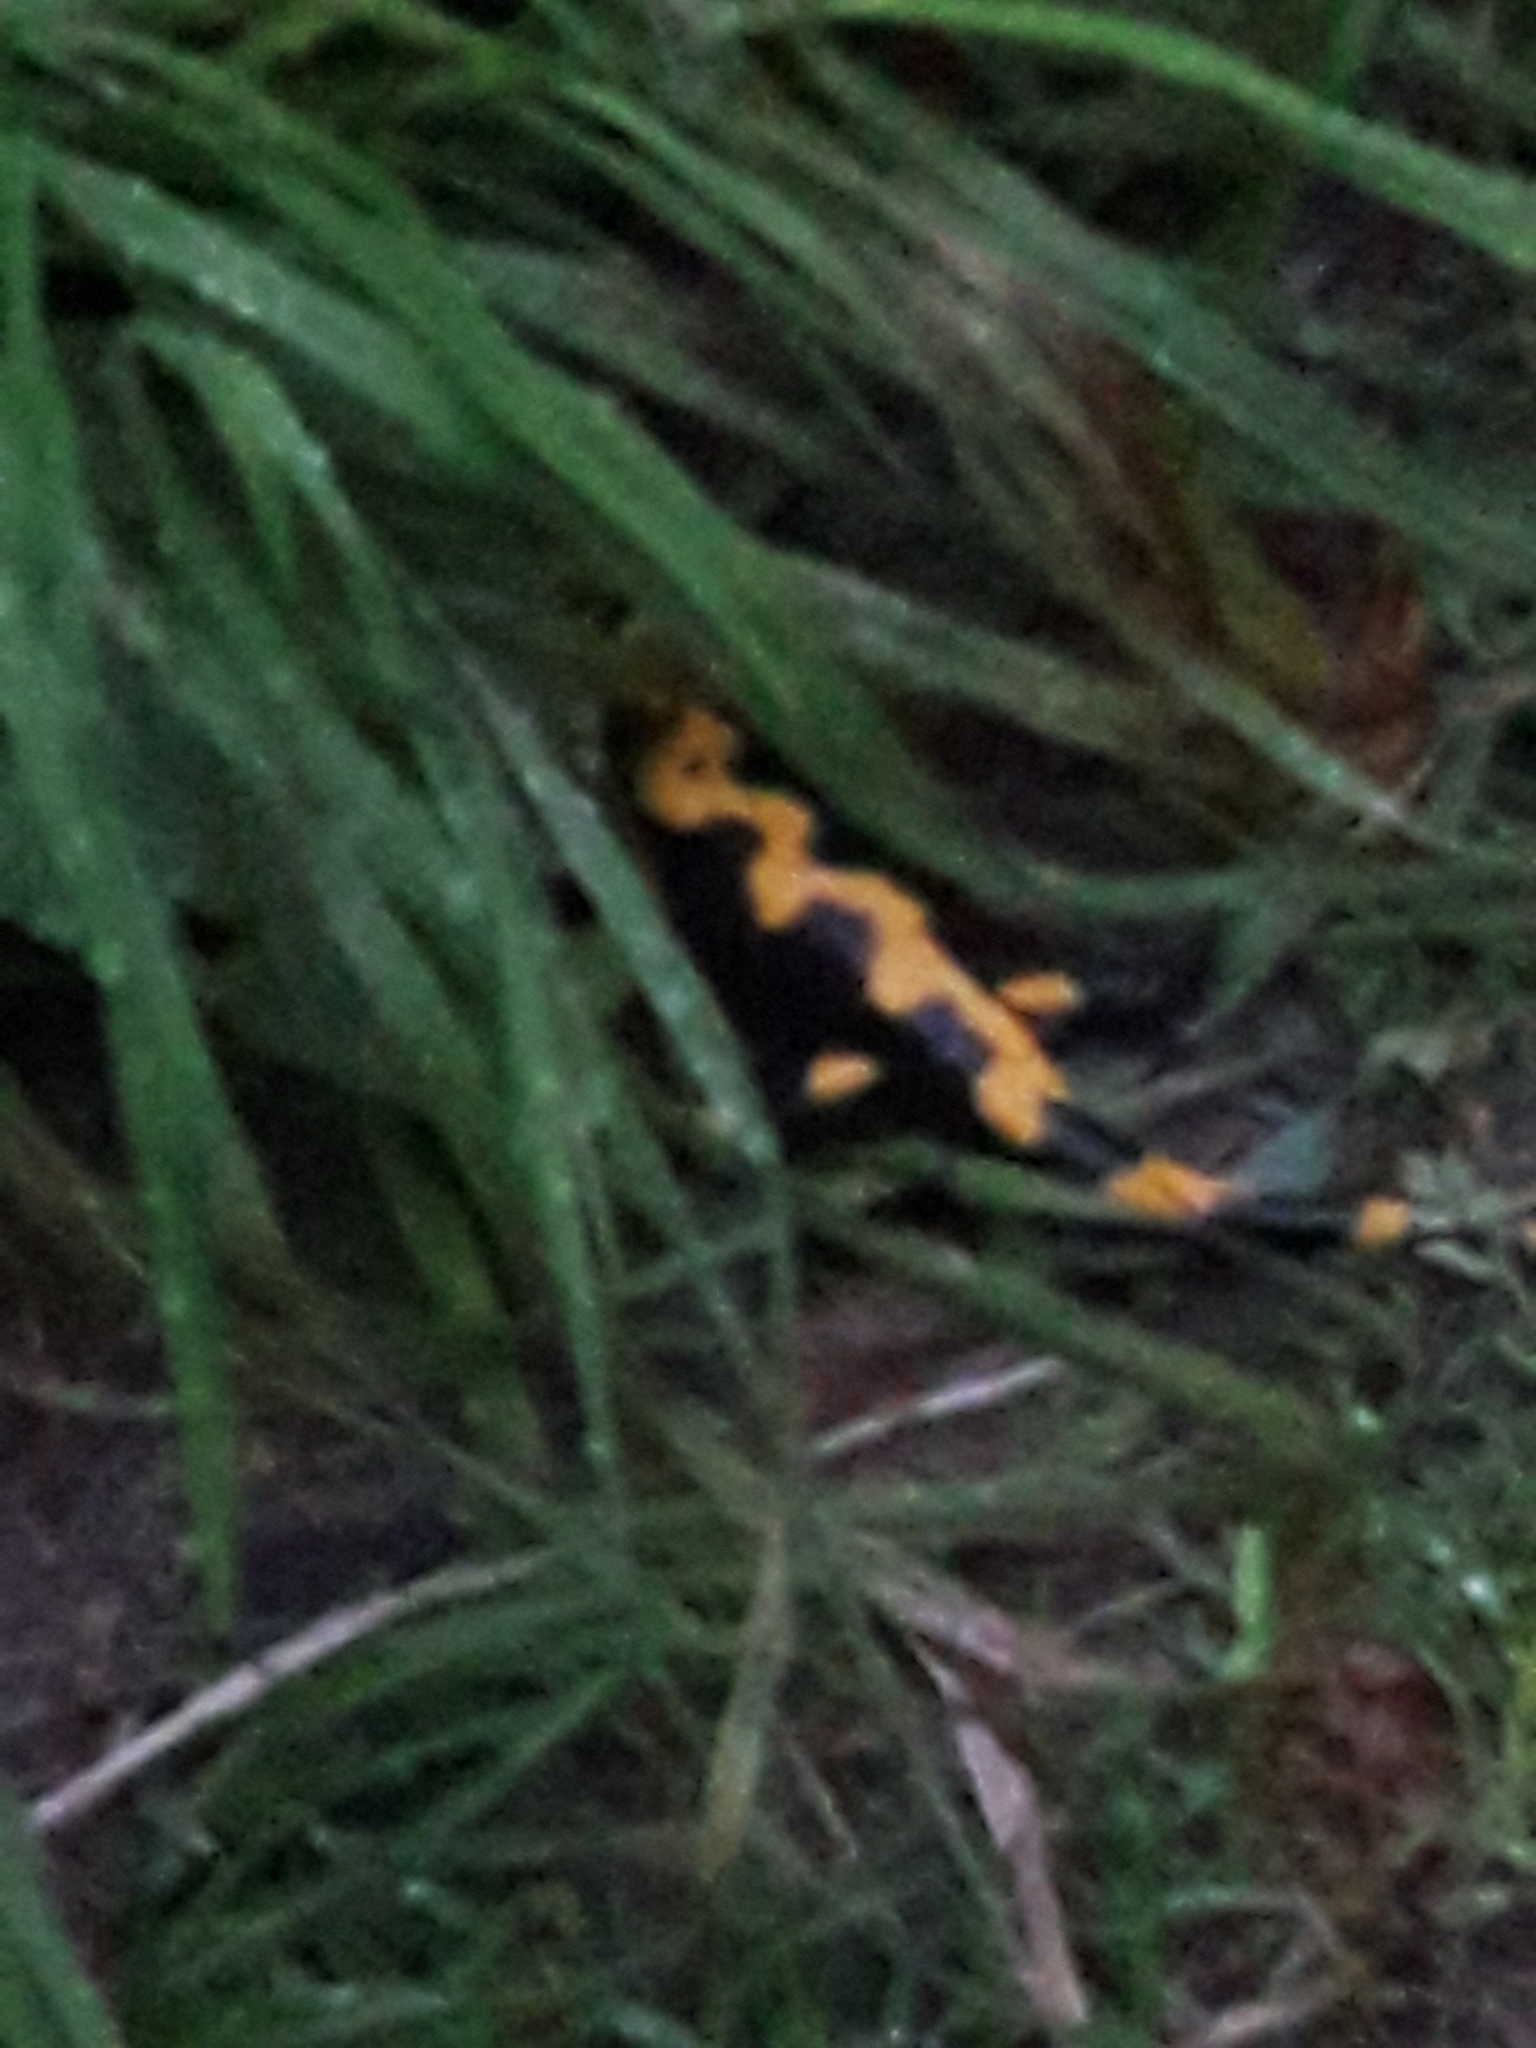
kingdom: Animalia
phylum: Chordata
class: Amphibia
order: Caudata
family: Salamandridae
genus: Salamandra
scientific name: Salamandra salamandra
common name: Fire salamander
